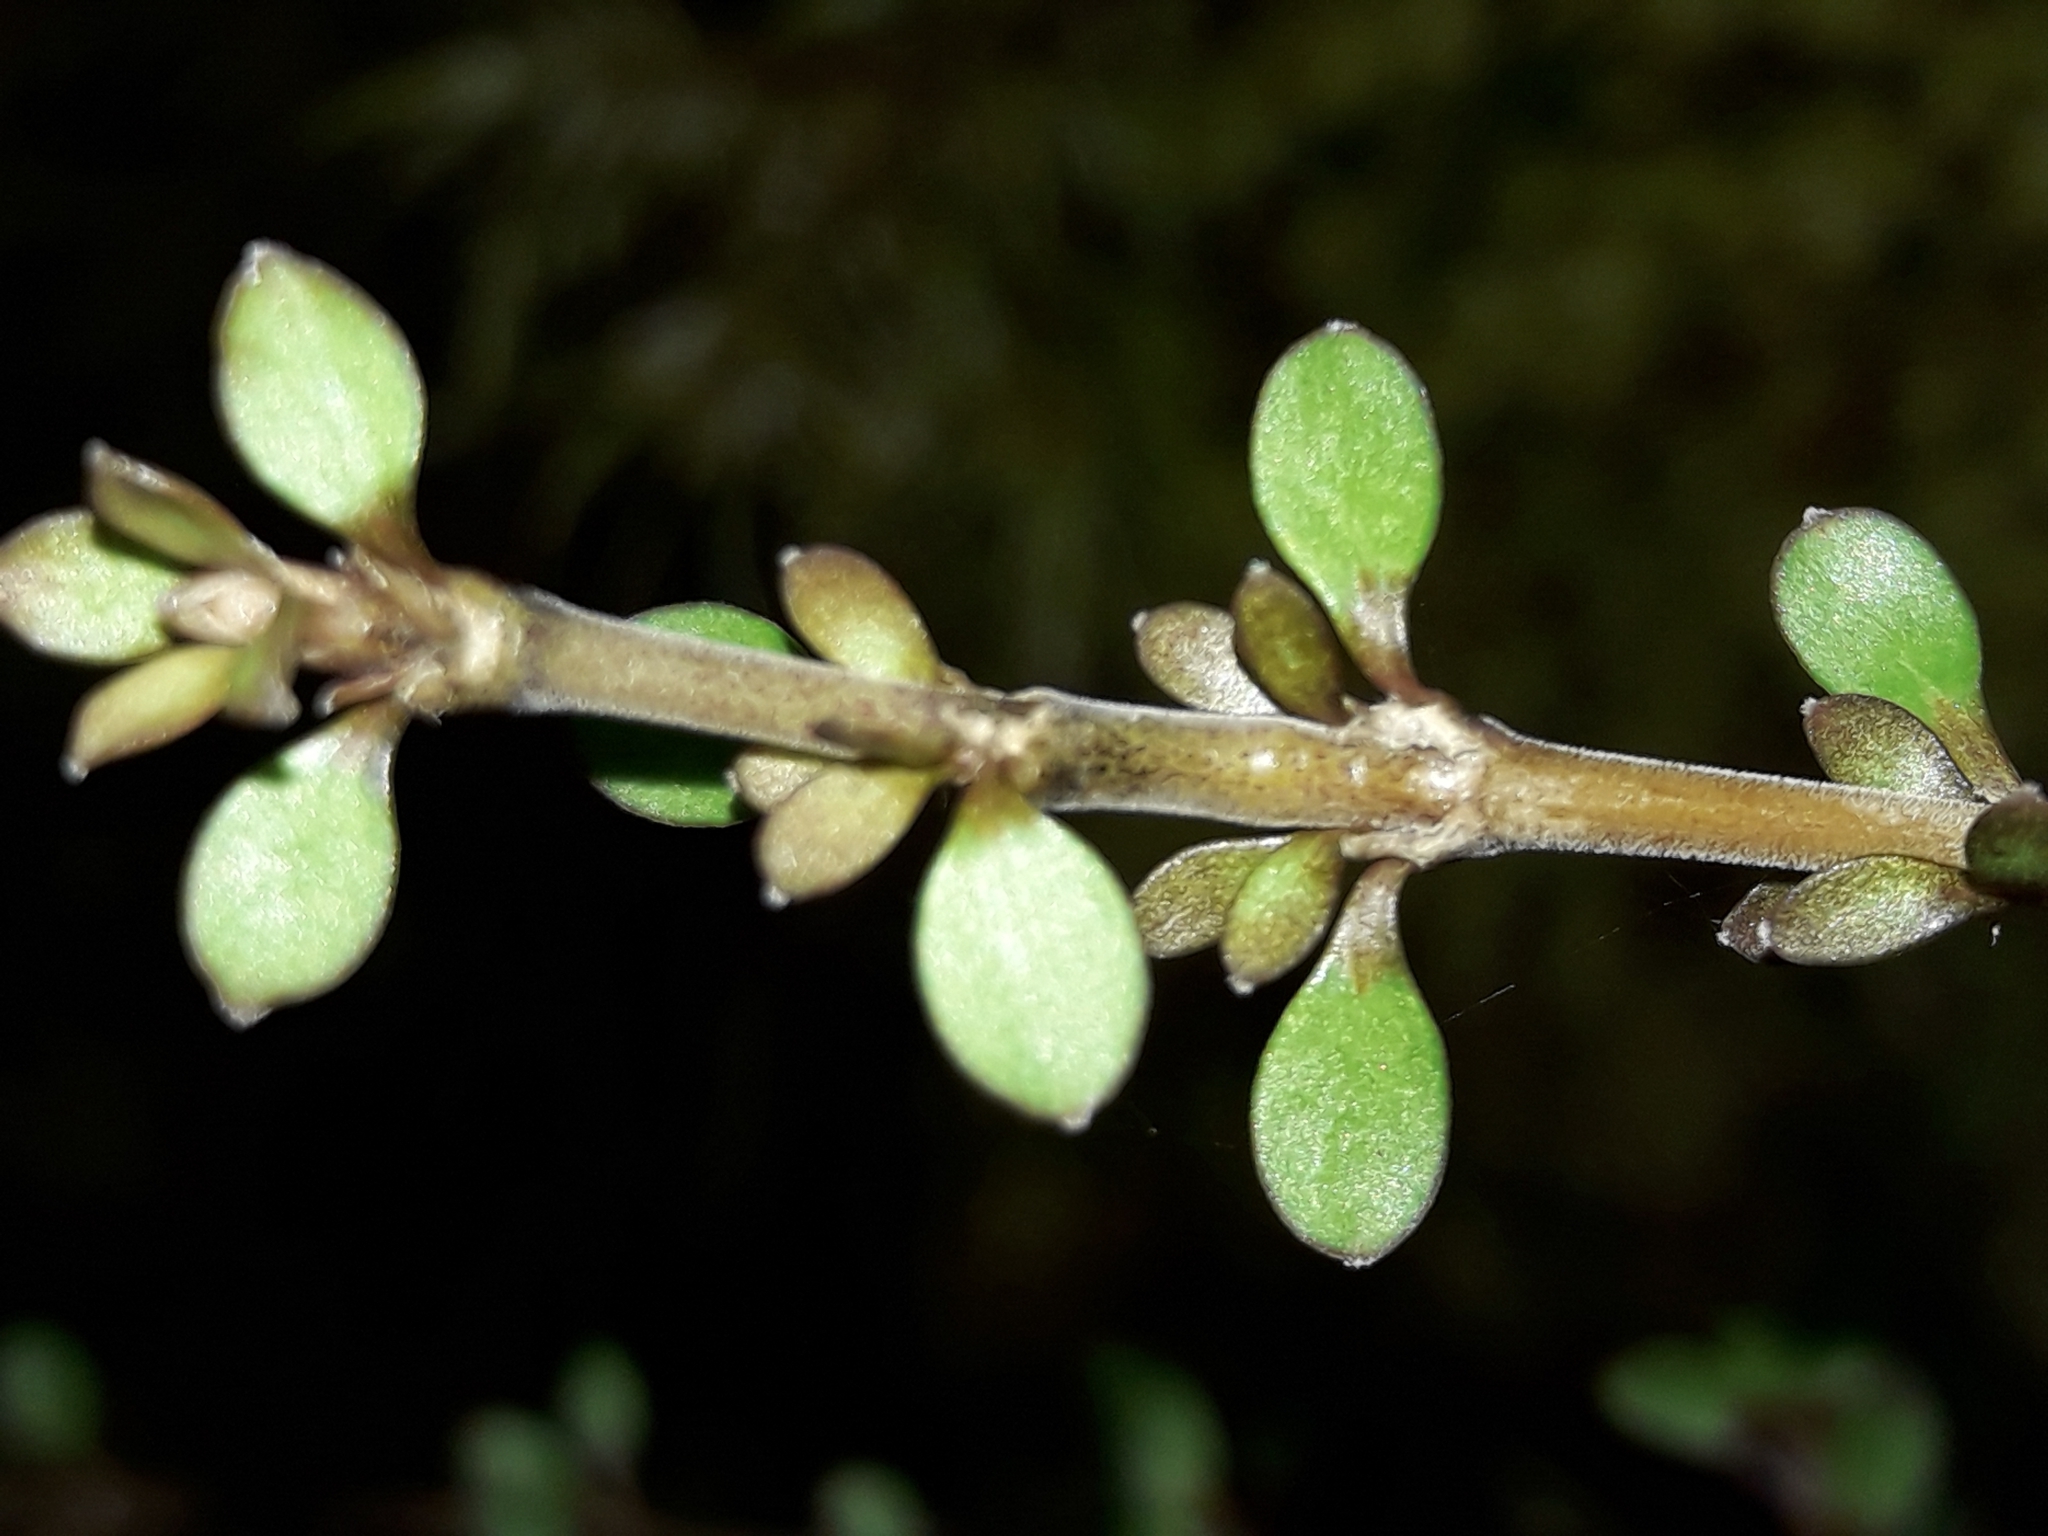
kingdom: Plantae
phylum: Tracheophyta
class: Magnoliopsida
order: Gentianales
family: Rubiaceae
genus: Coprosma
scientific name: Coprosma depressa
